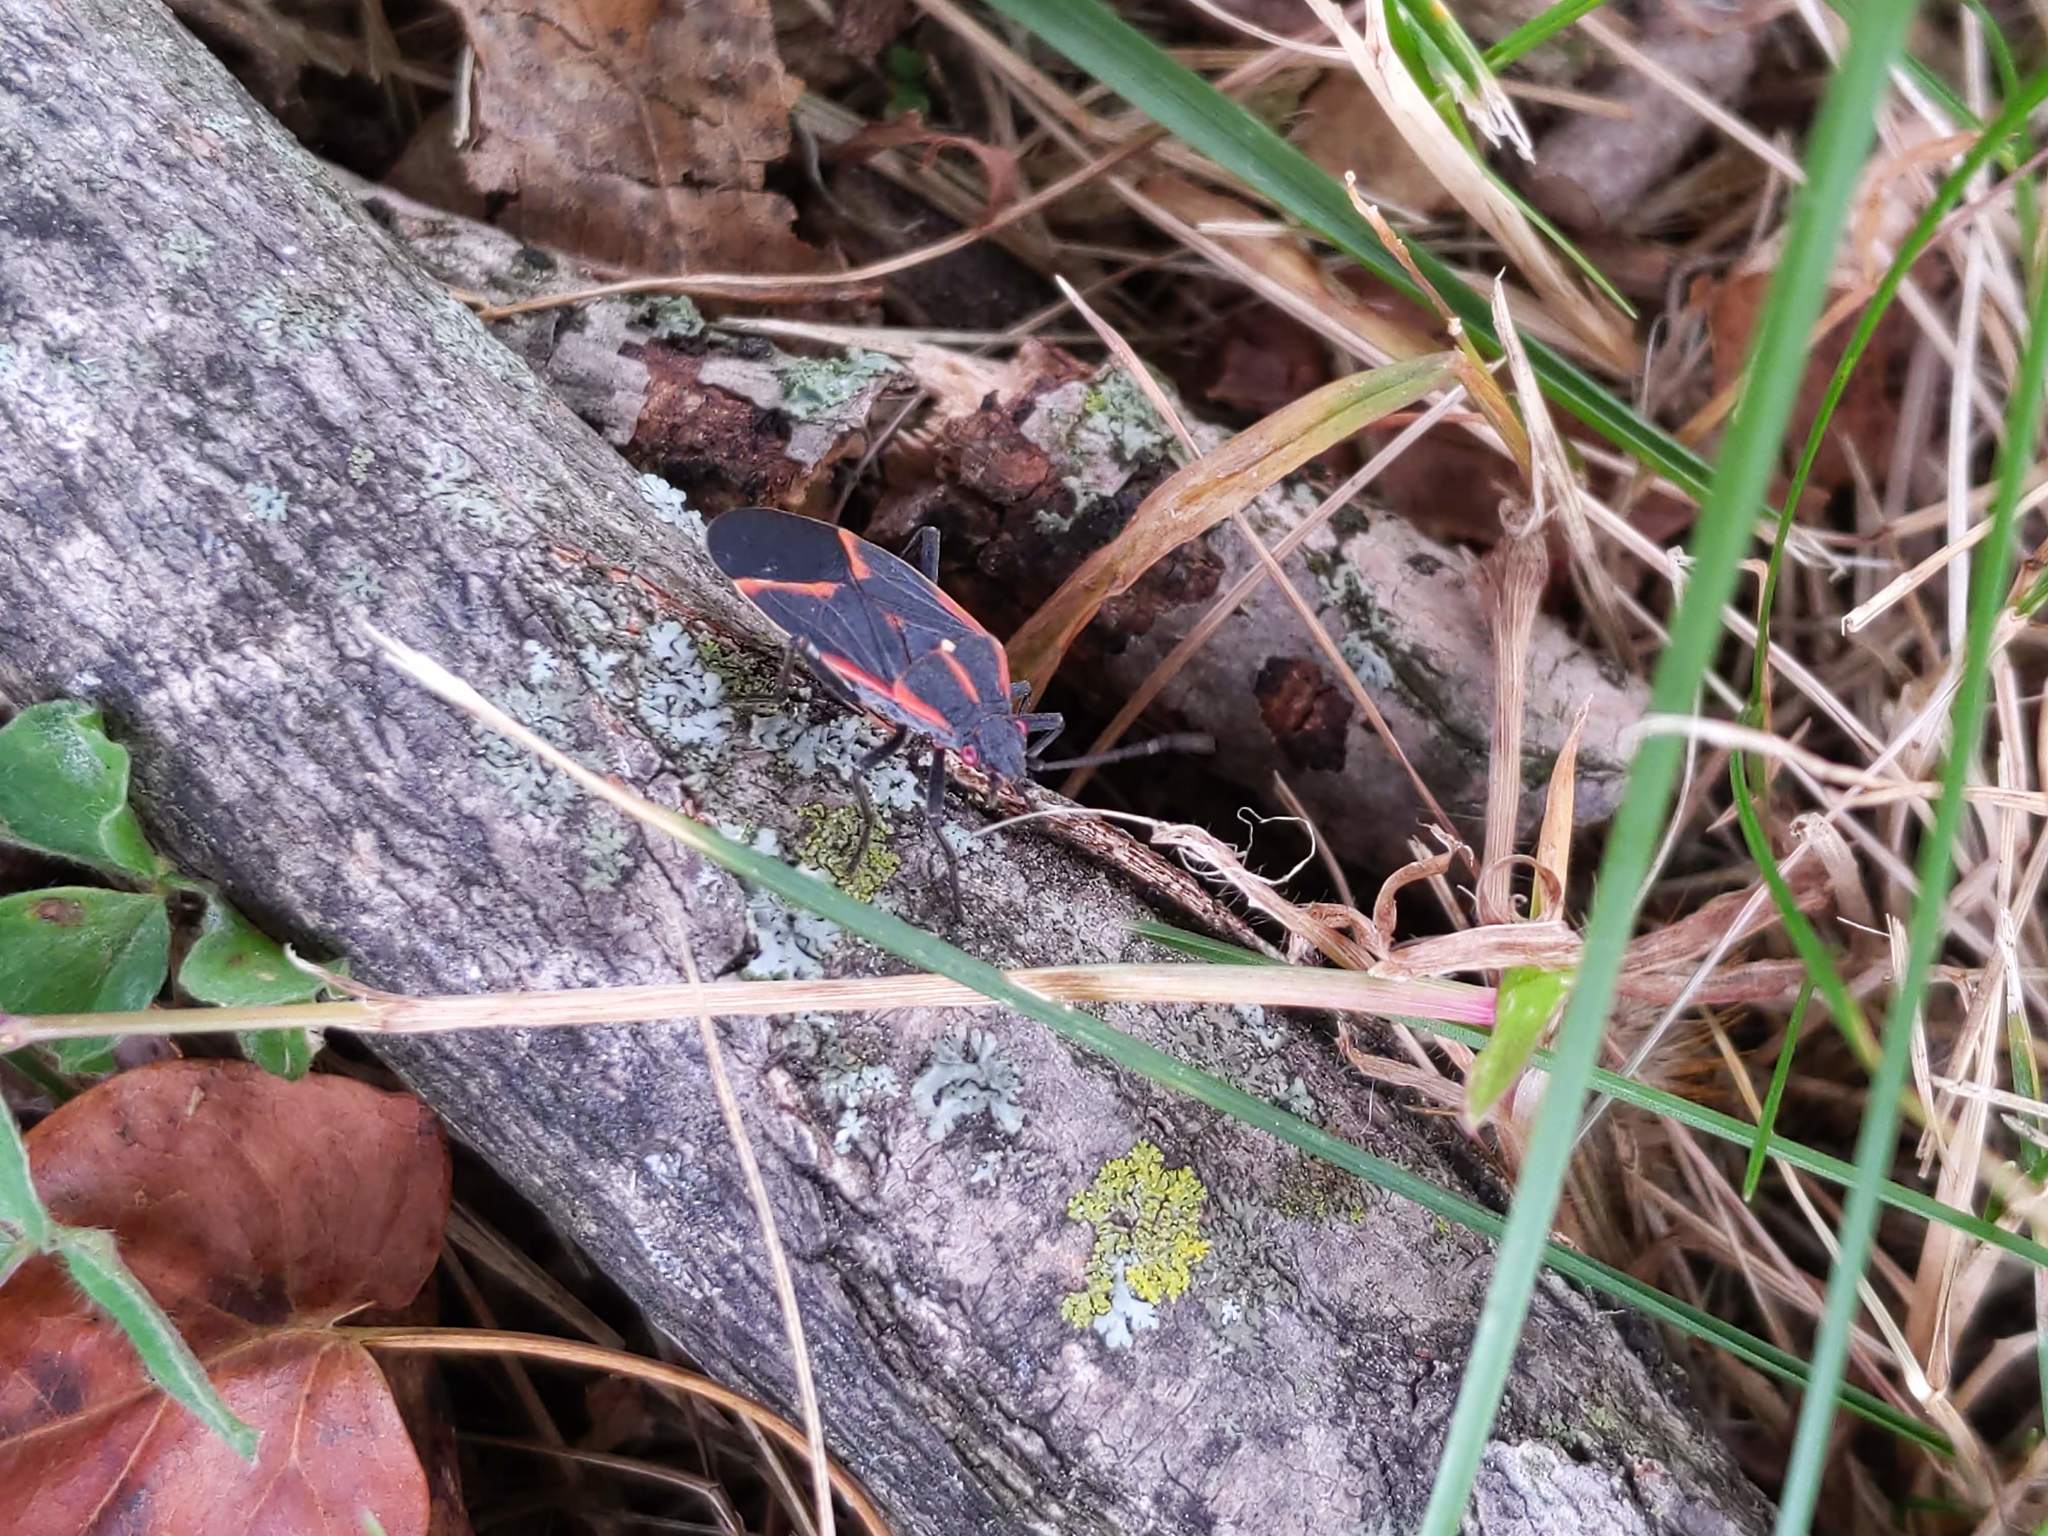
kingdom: Animalia
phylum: Arthropoda
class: Insecta
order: Hemiptera
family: Rhopalidae
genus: Boisea
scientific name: Boisea trivittata
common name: Boxelder bug
